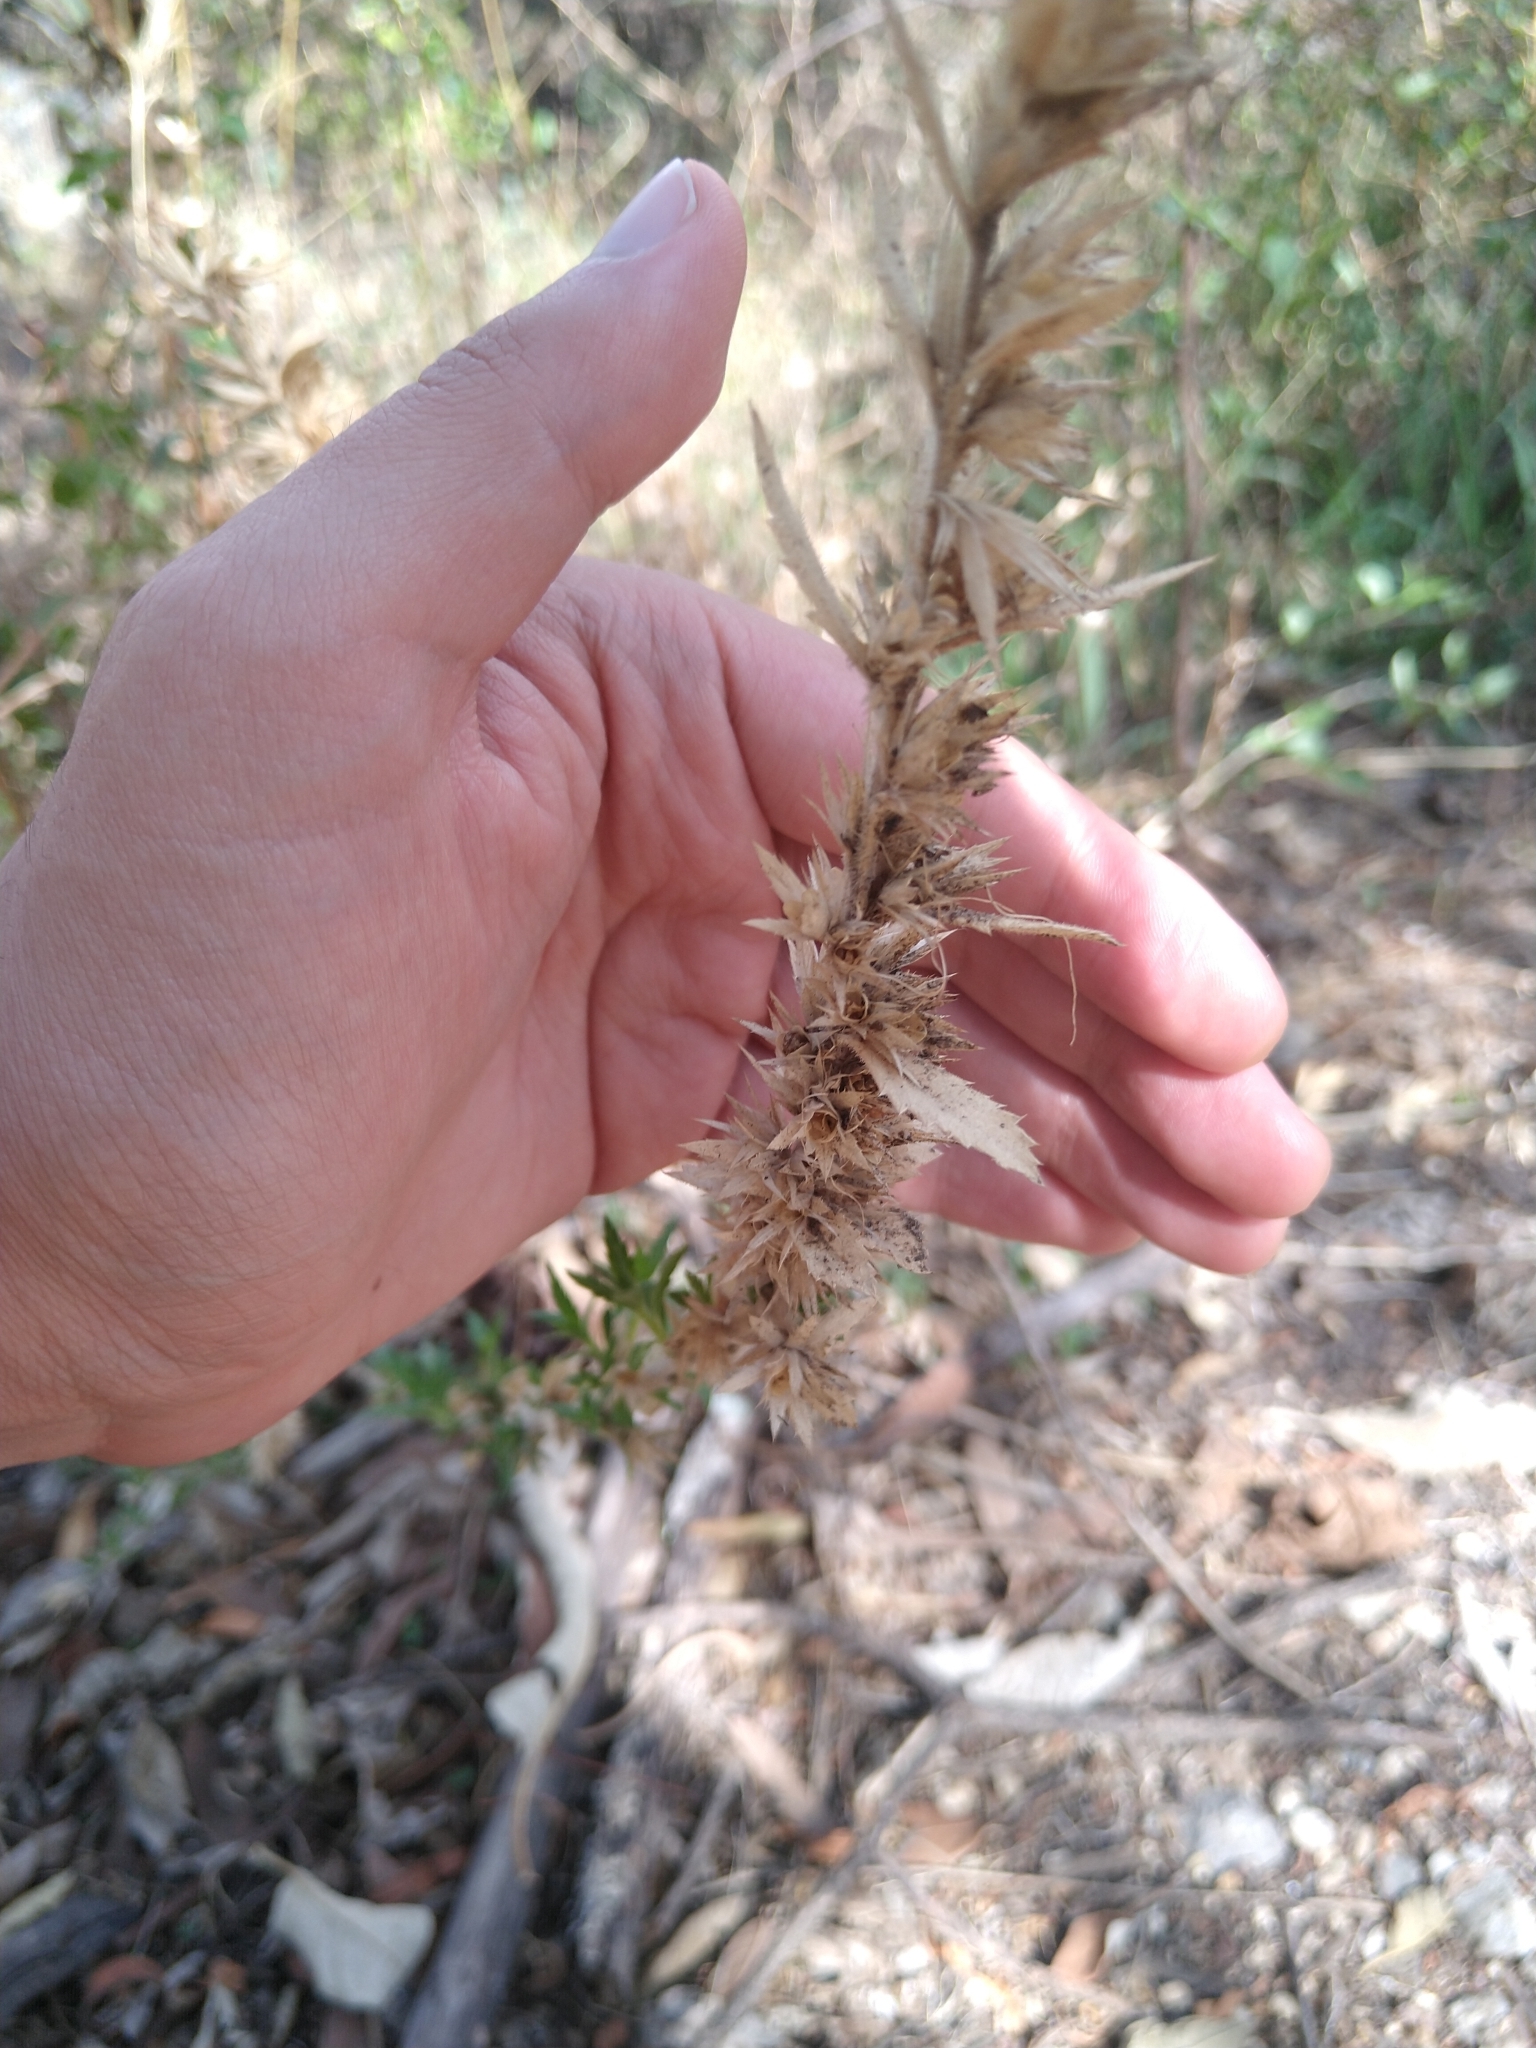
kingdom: Plantae
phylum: Tracheophyta
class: Magnoliopsida
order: Ericales
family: Polemoniaceae
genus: Loeselia
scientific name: Loeselia mexicana
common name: Mexican false calico
